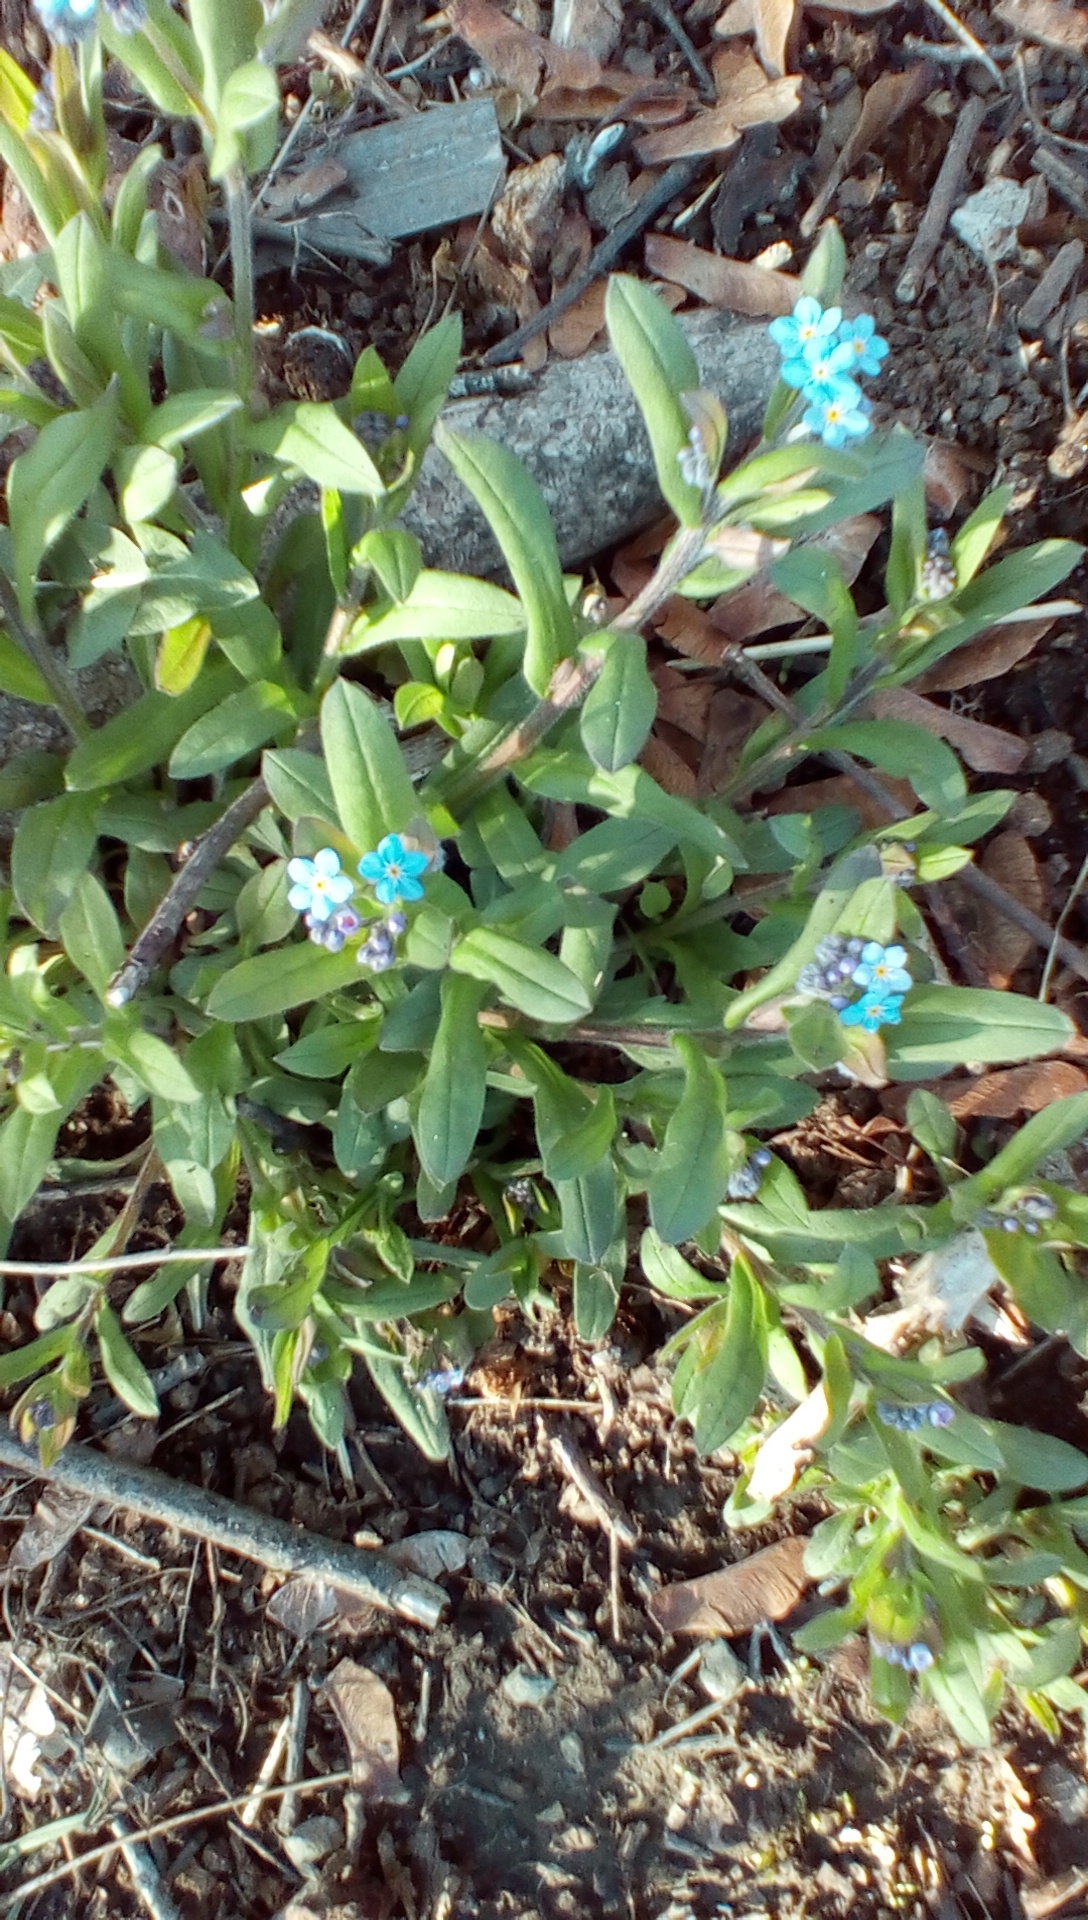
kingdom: Plantae
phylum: Tracheophyta
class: Magnoliopsida
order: Boraginales
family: Boraginaceae
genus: Myosotis
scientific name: Myosotis
